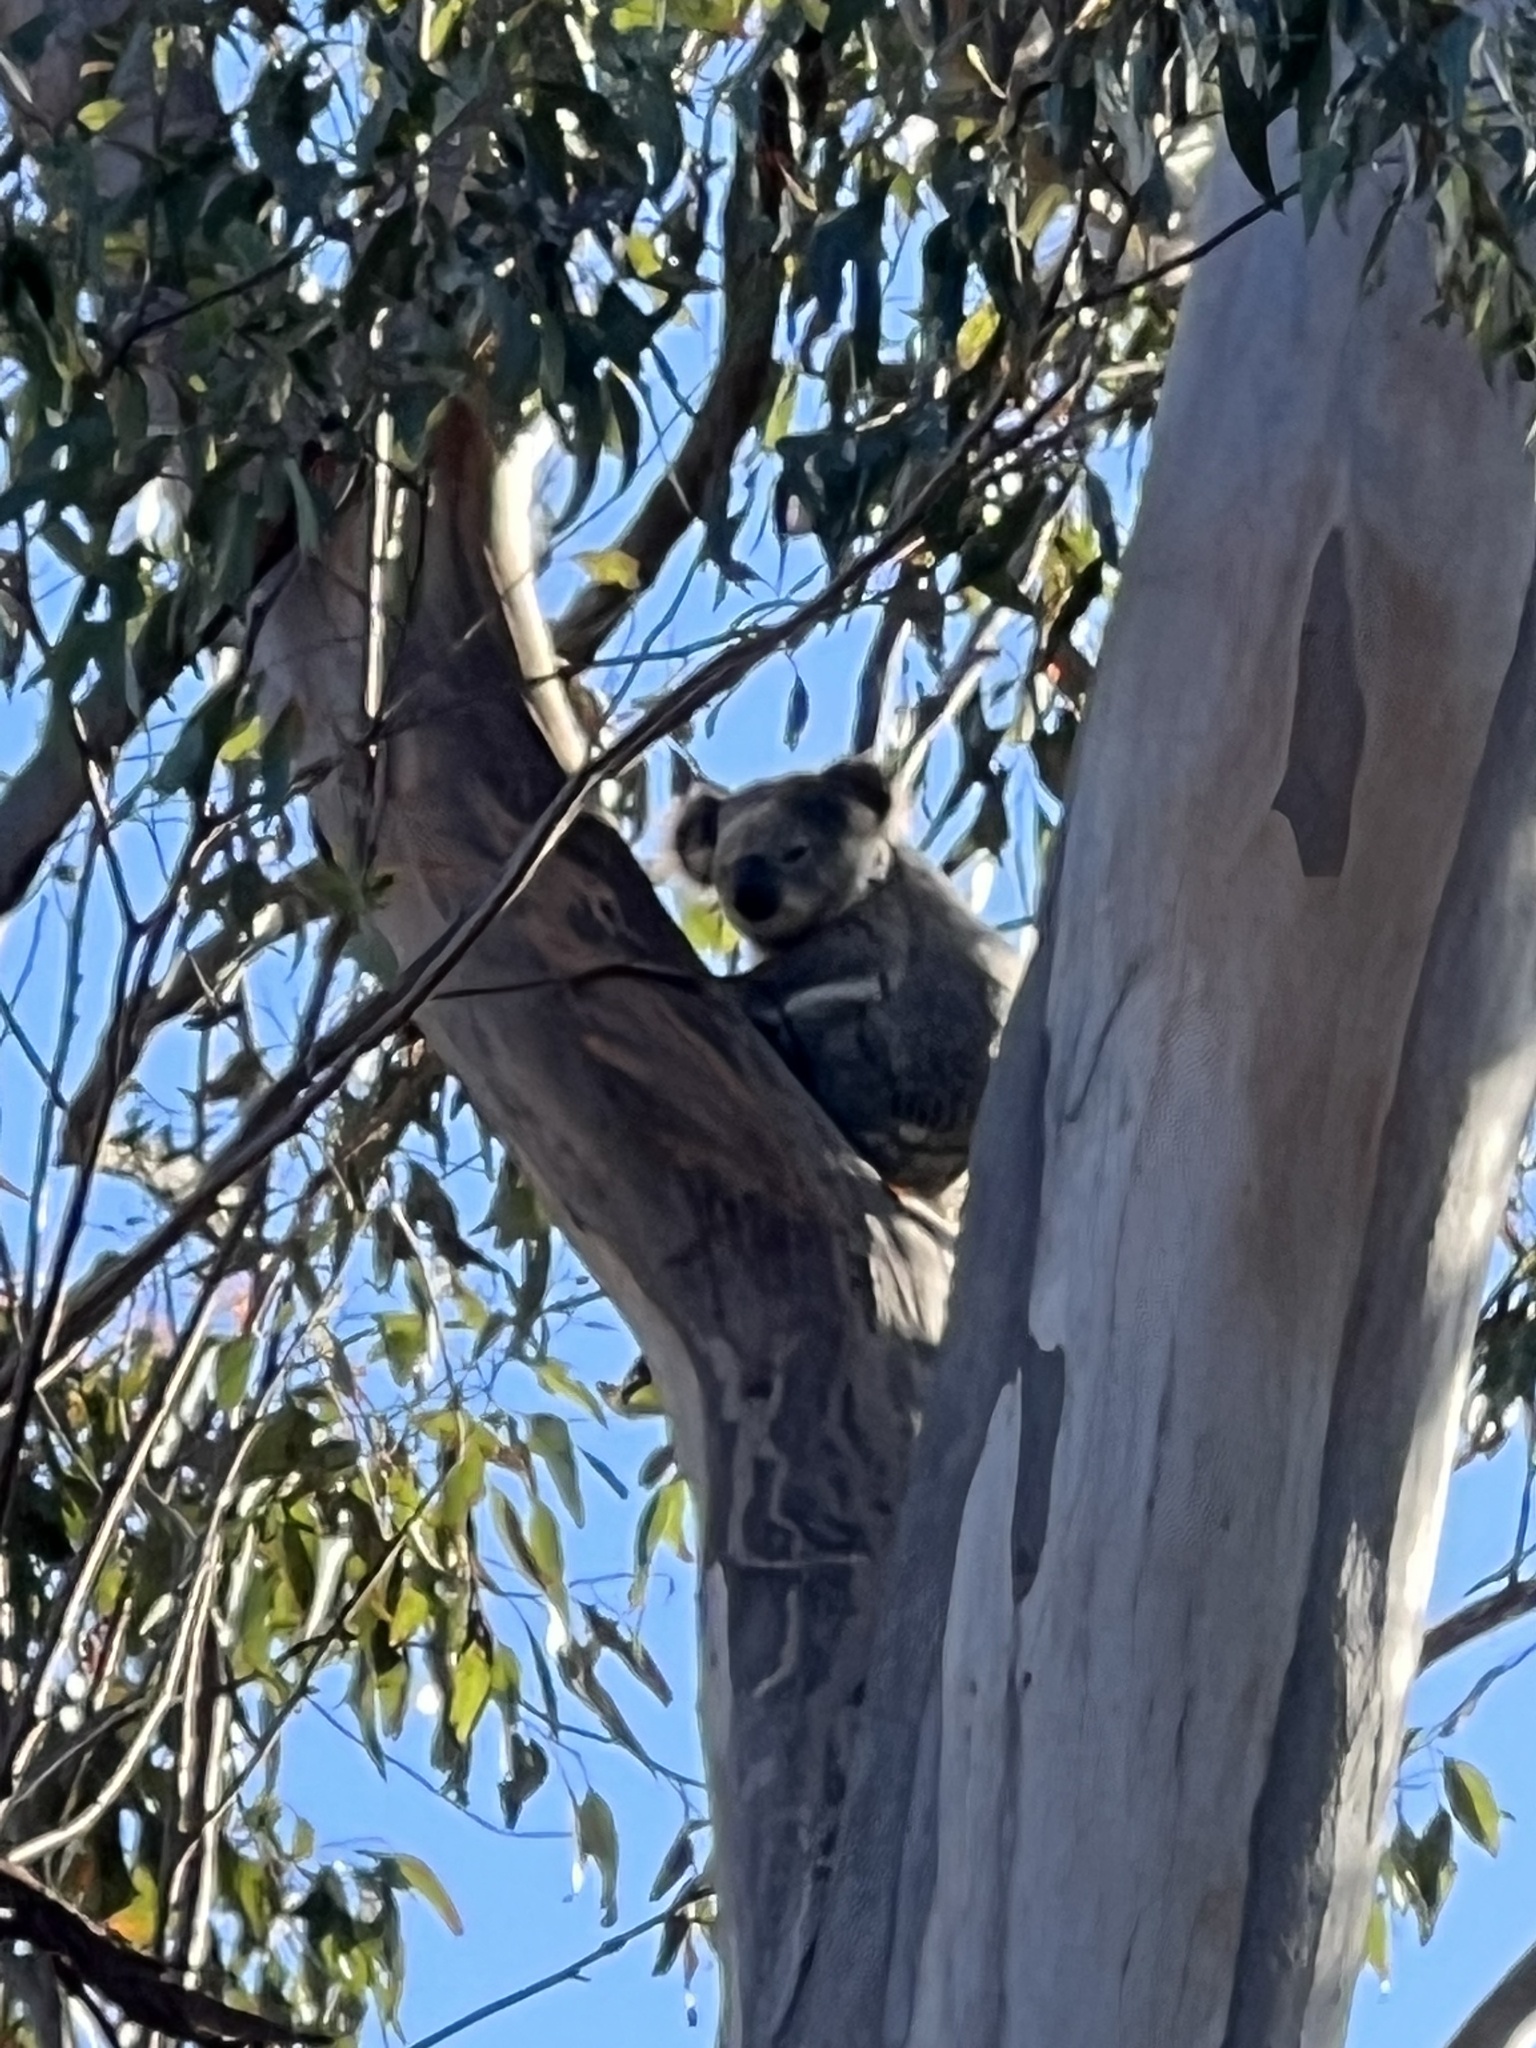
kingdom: Animalia
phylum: Chordata
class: Mammalia
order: Diprotodontia
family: Phascolarctidae
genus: Phascolarctos
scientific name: Phascolarctos cinereus
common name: Koala
